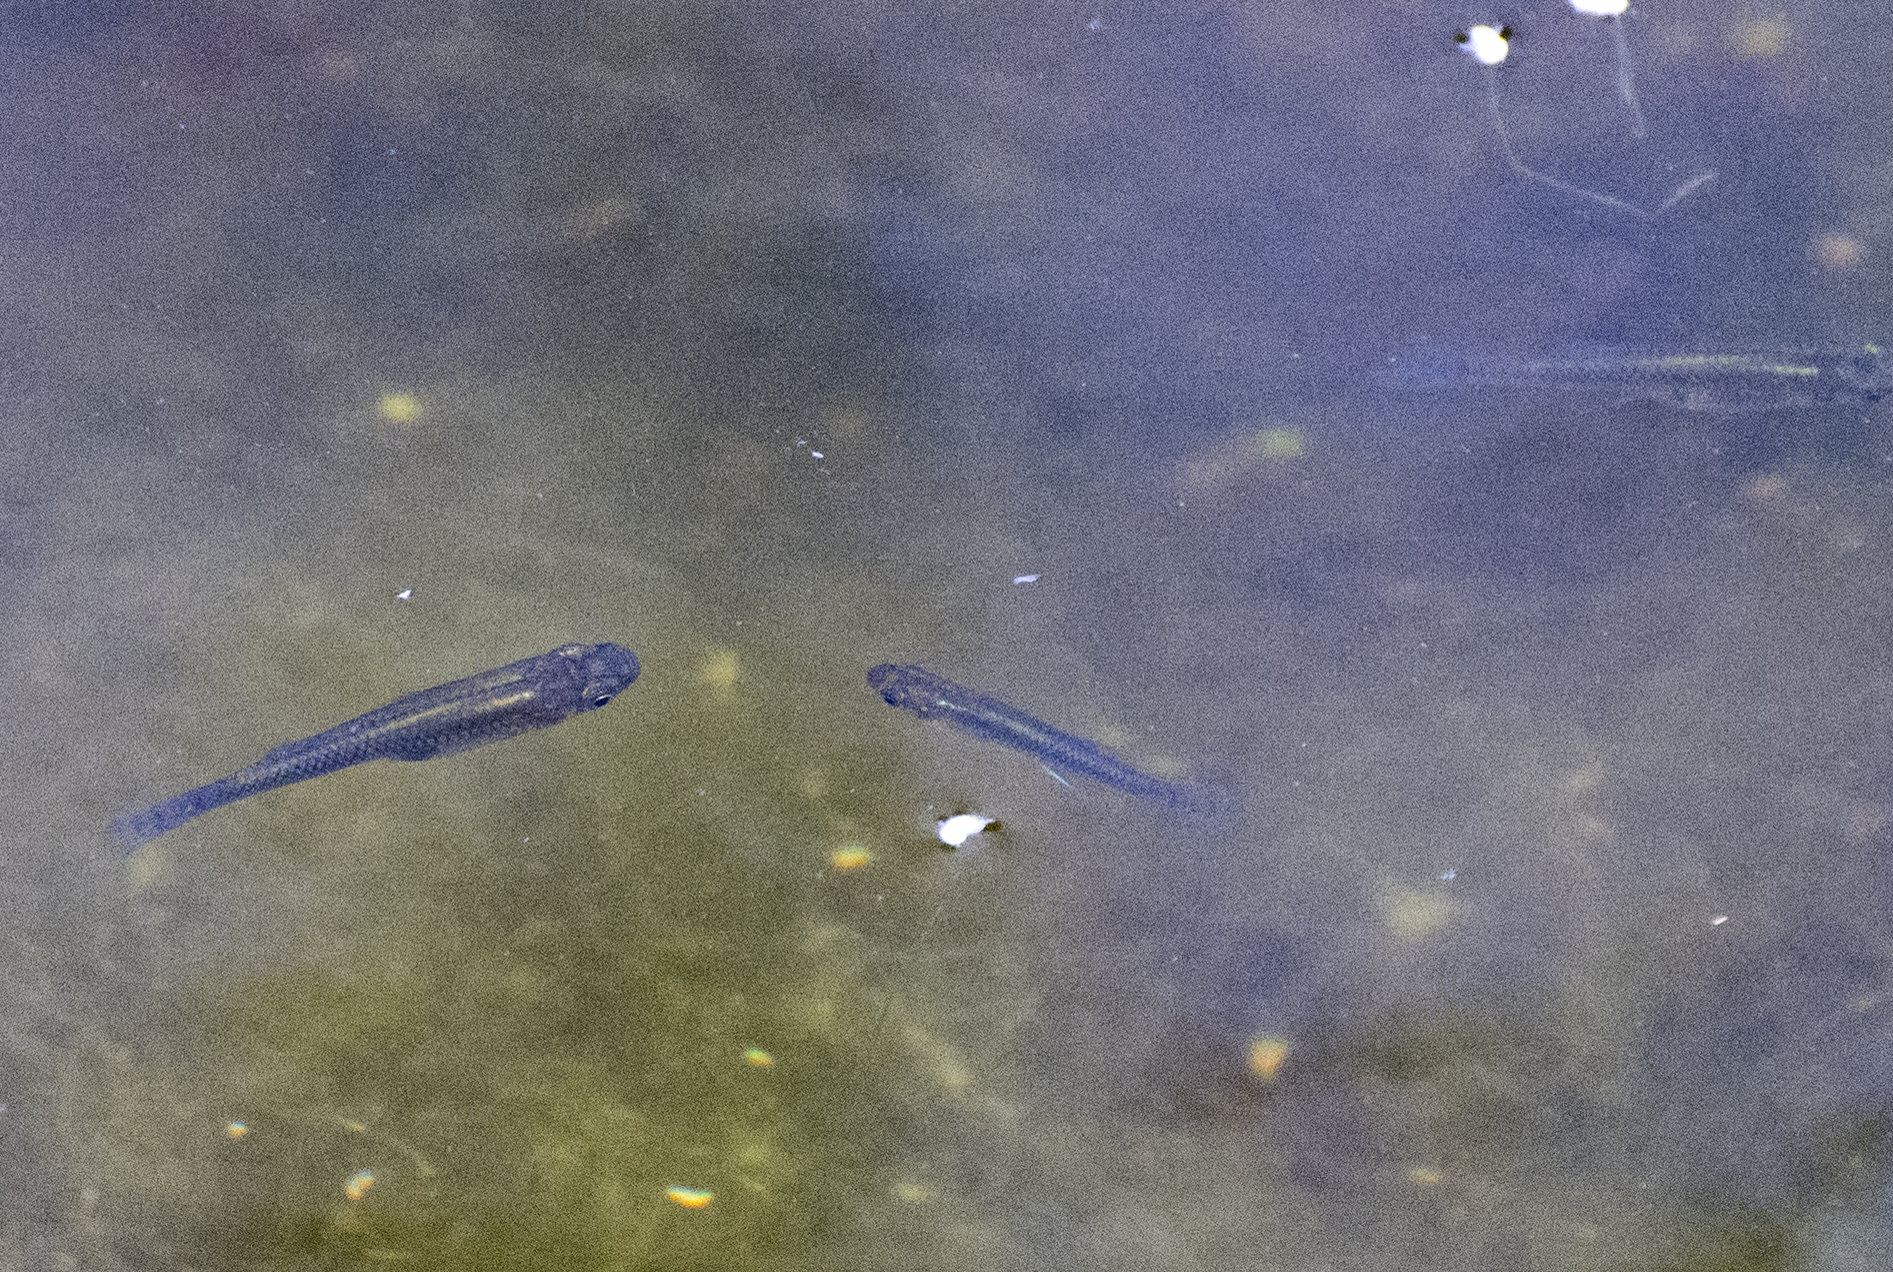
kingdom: Animalia
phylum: Chordata
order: Cyprinodontiformes
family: Poeciliidae
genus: Gambusia
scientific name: Gambusia holbrooki
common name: Eastern mosquitofish
